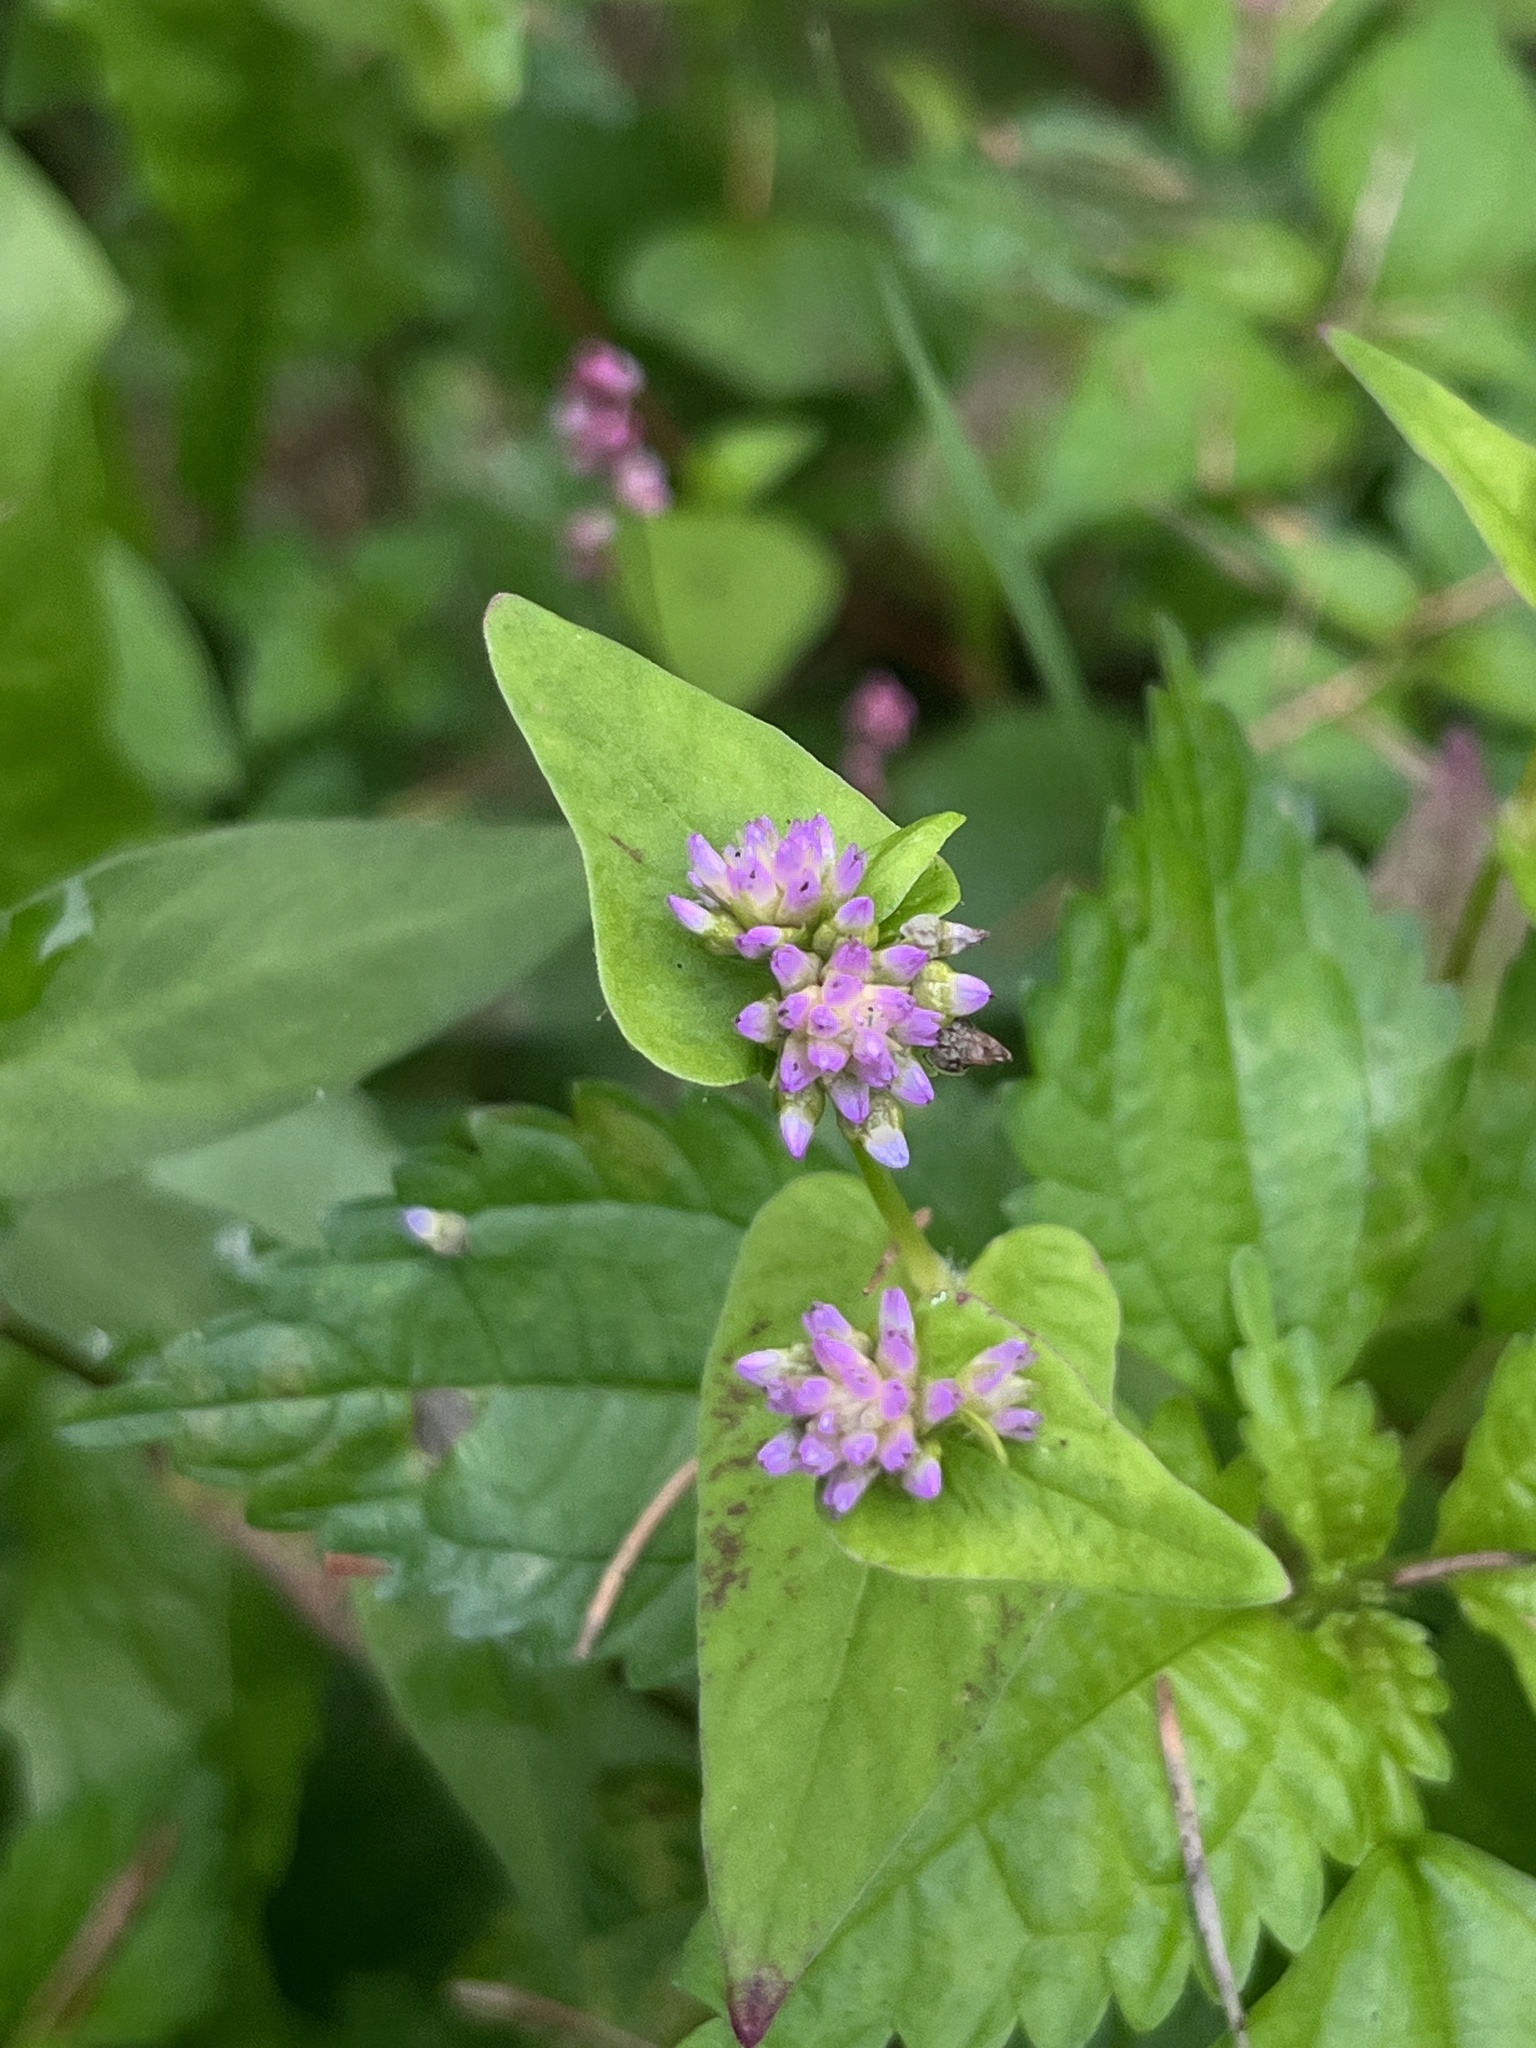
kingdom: Plantae
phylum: Tracheophyta
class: Magnoliopsida
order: Caryophyllales
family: Polygonaceae
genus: Persicaria
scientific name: Persicaria nepalensis
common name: Nepal persicaria
